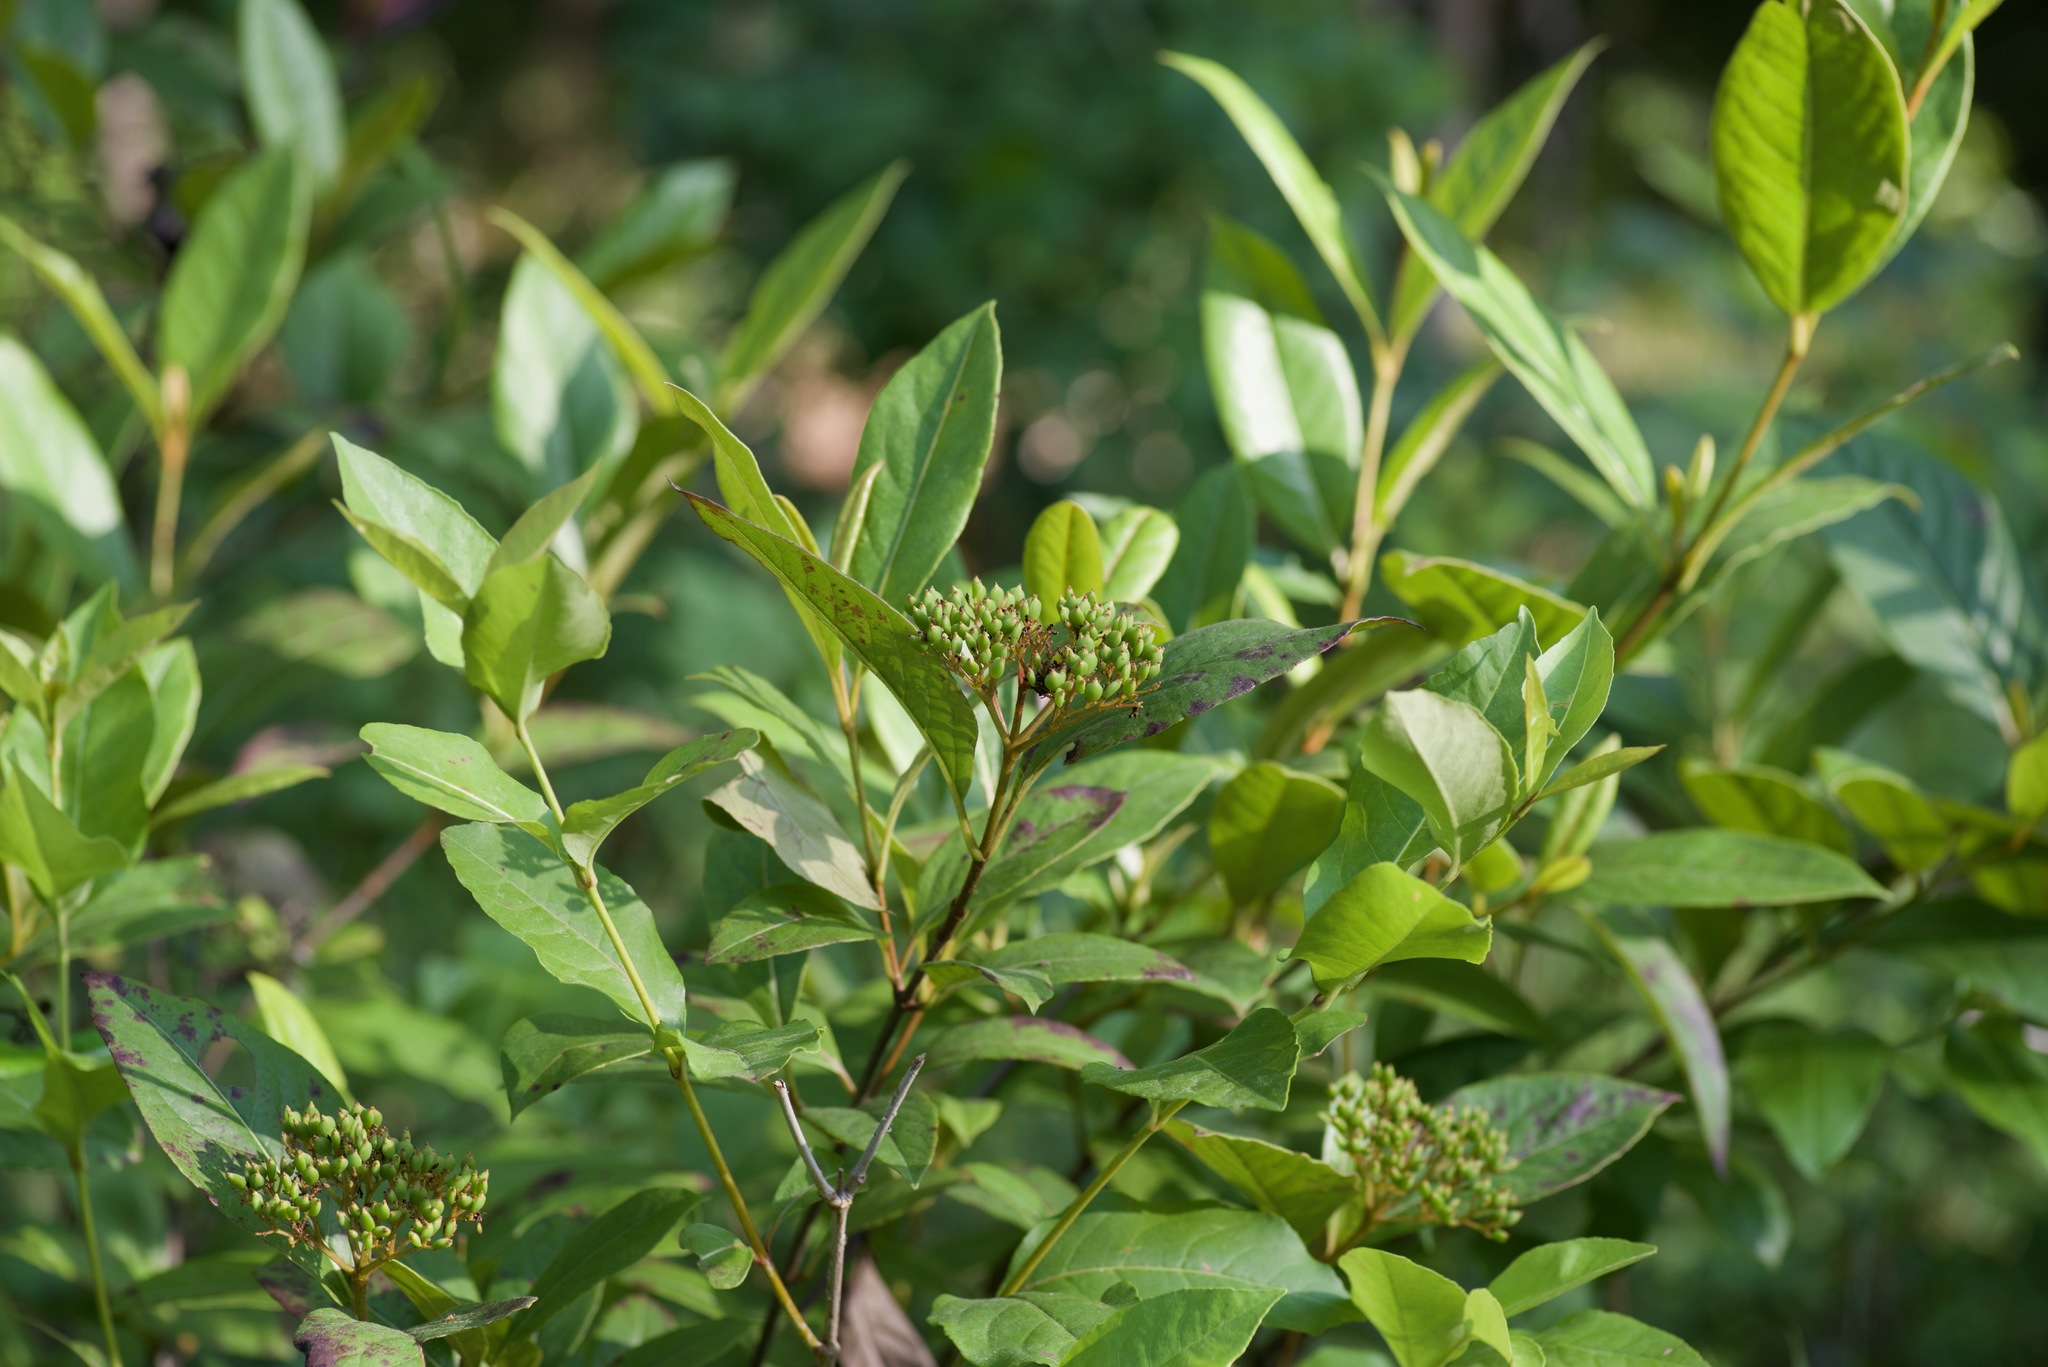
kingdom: Plantae
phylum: Tracheophyta
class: Magnoliopsida
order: Dipsacales
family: Viburnaceae
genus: Viburnum
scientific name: Viburnum nudum
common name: Possum haw
